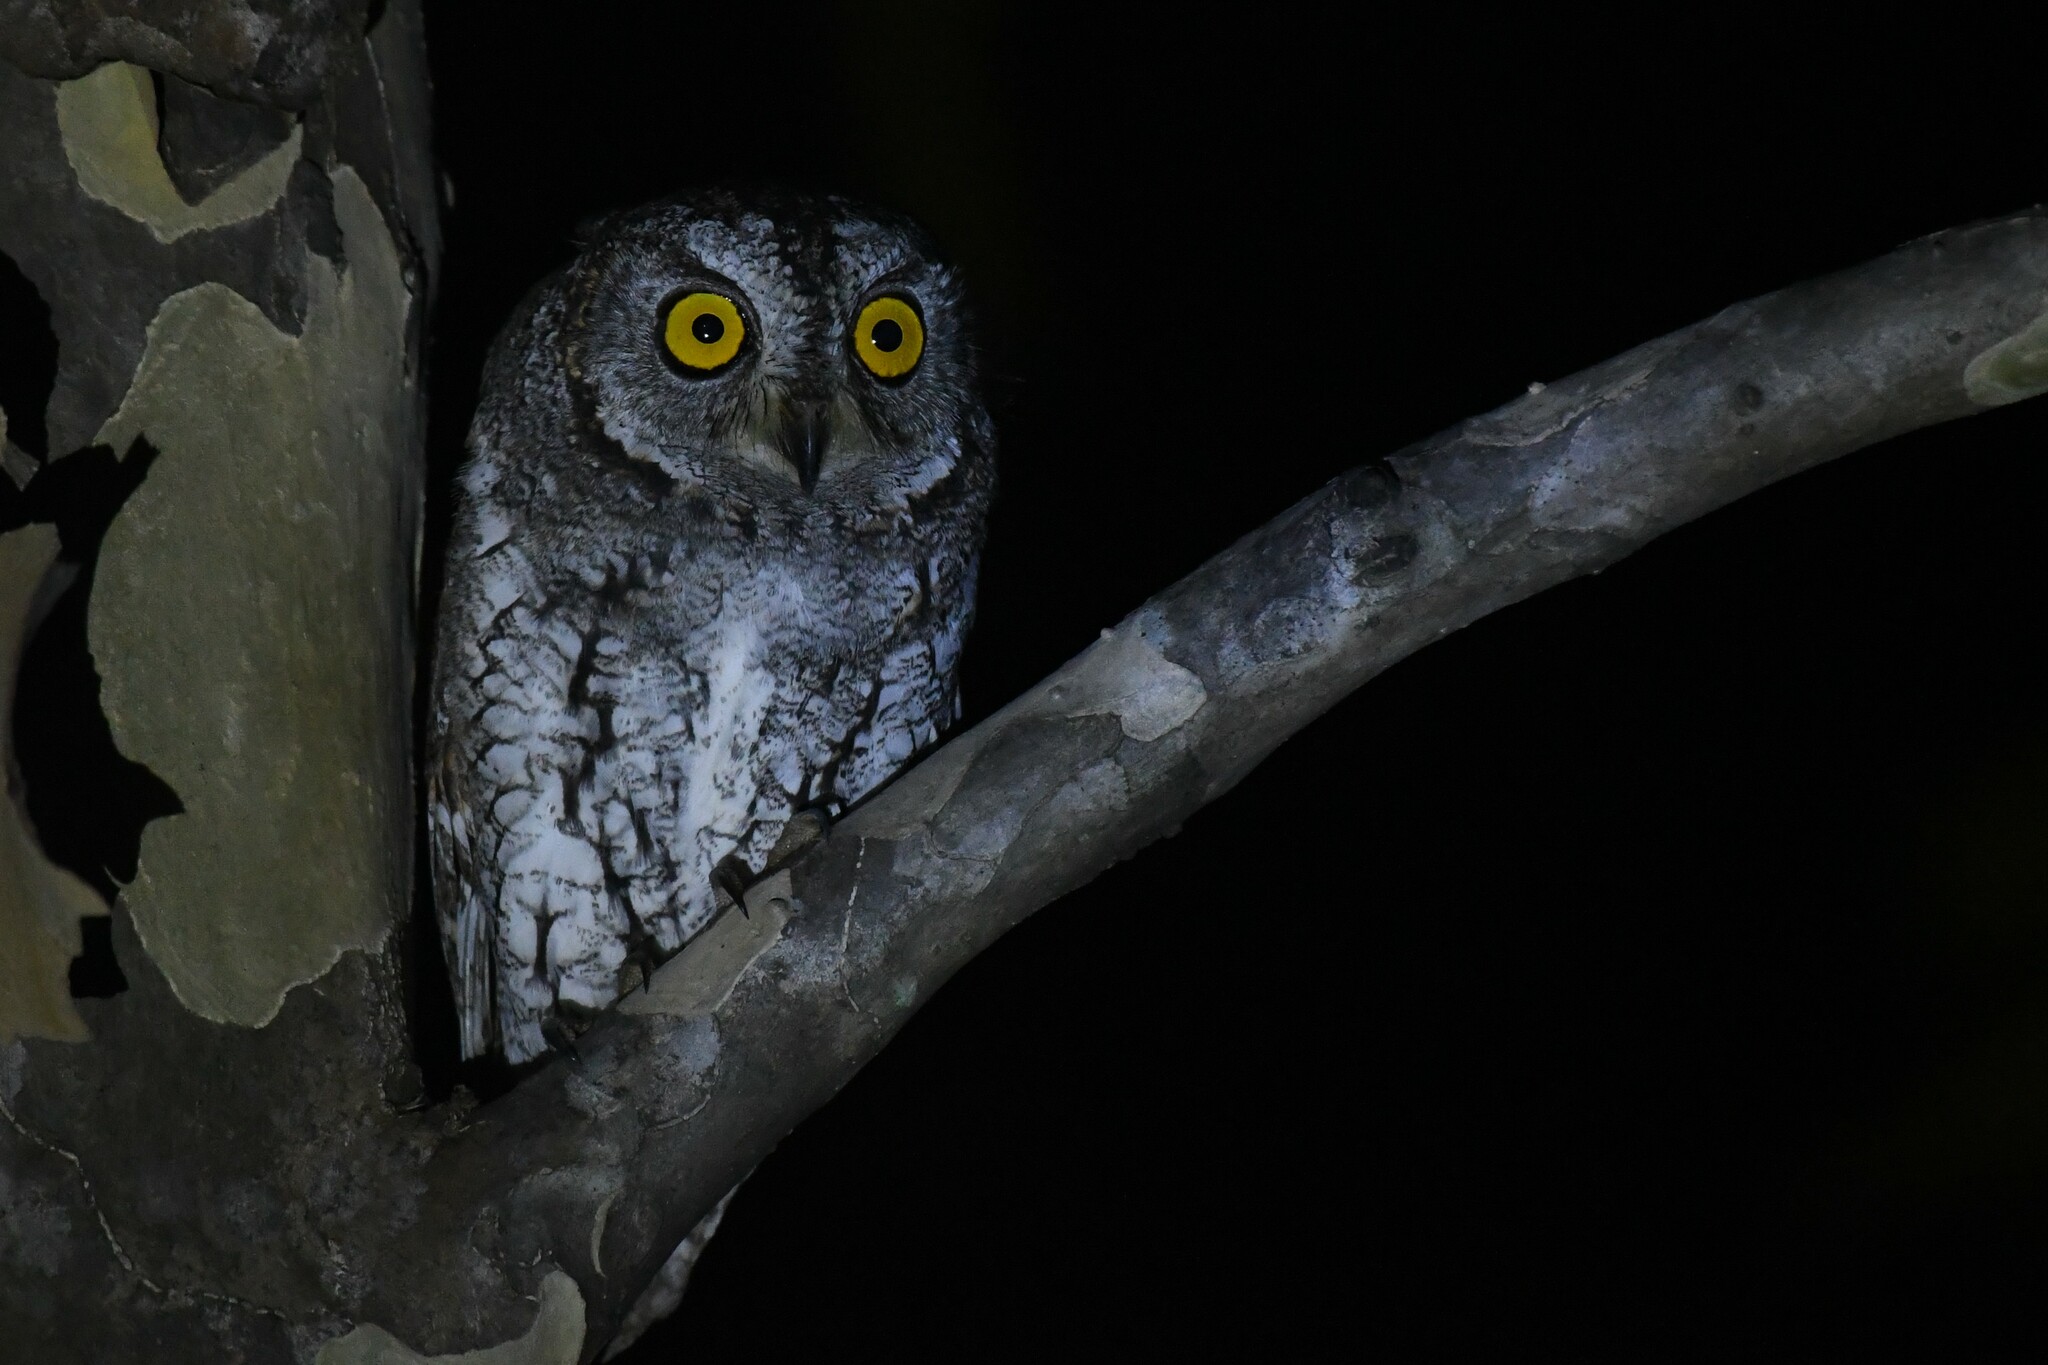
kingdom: Animalia
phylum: Chordata
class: Aves
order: Strigiformes
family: Strigidae
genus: Otus
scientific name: Otus sunia
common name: Oriental scops-owl
